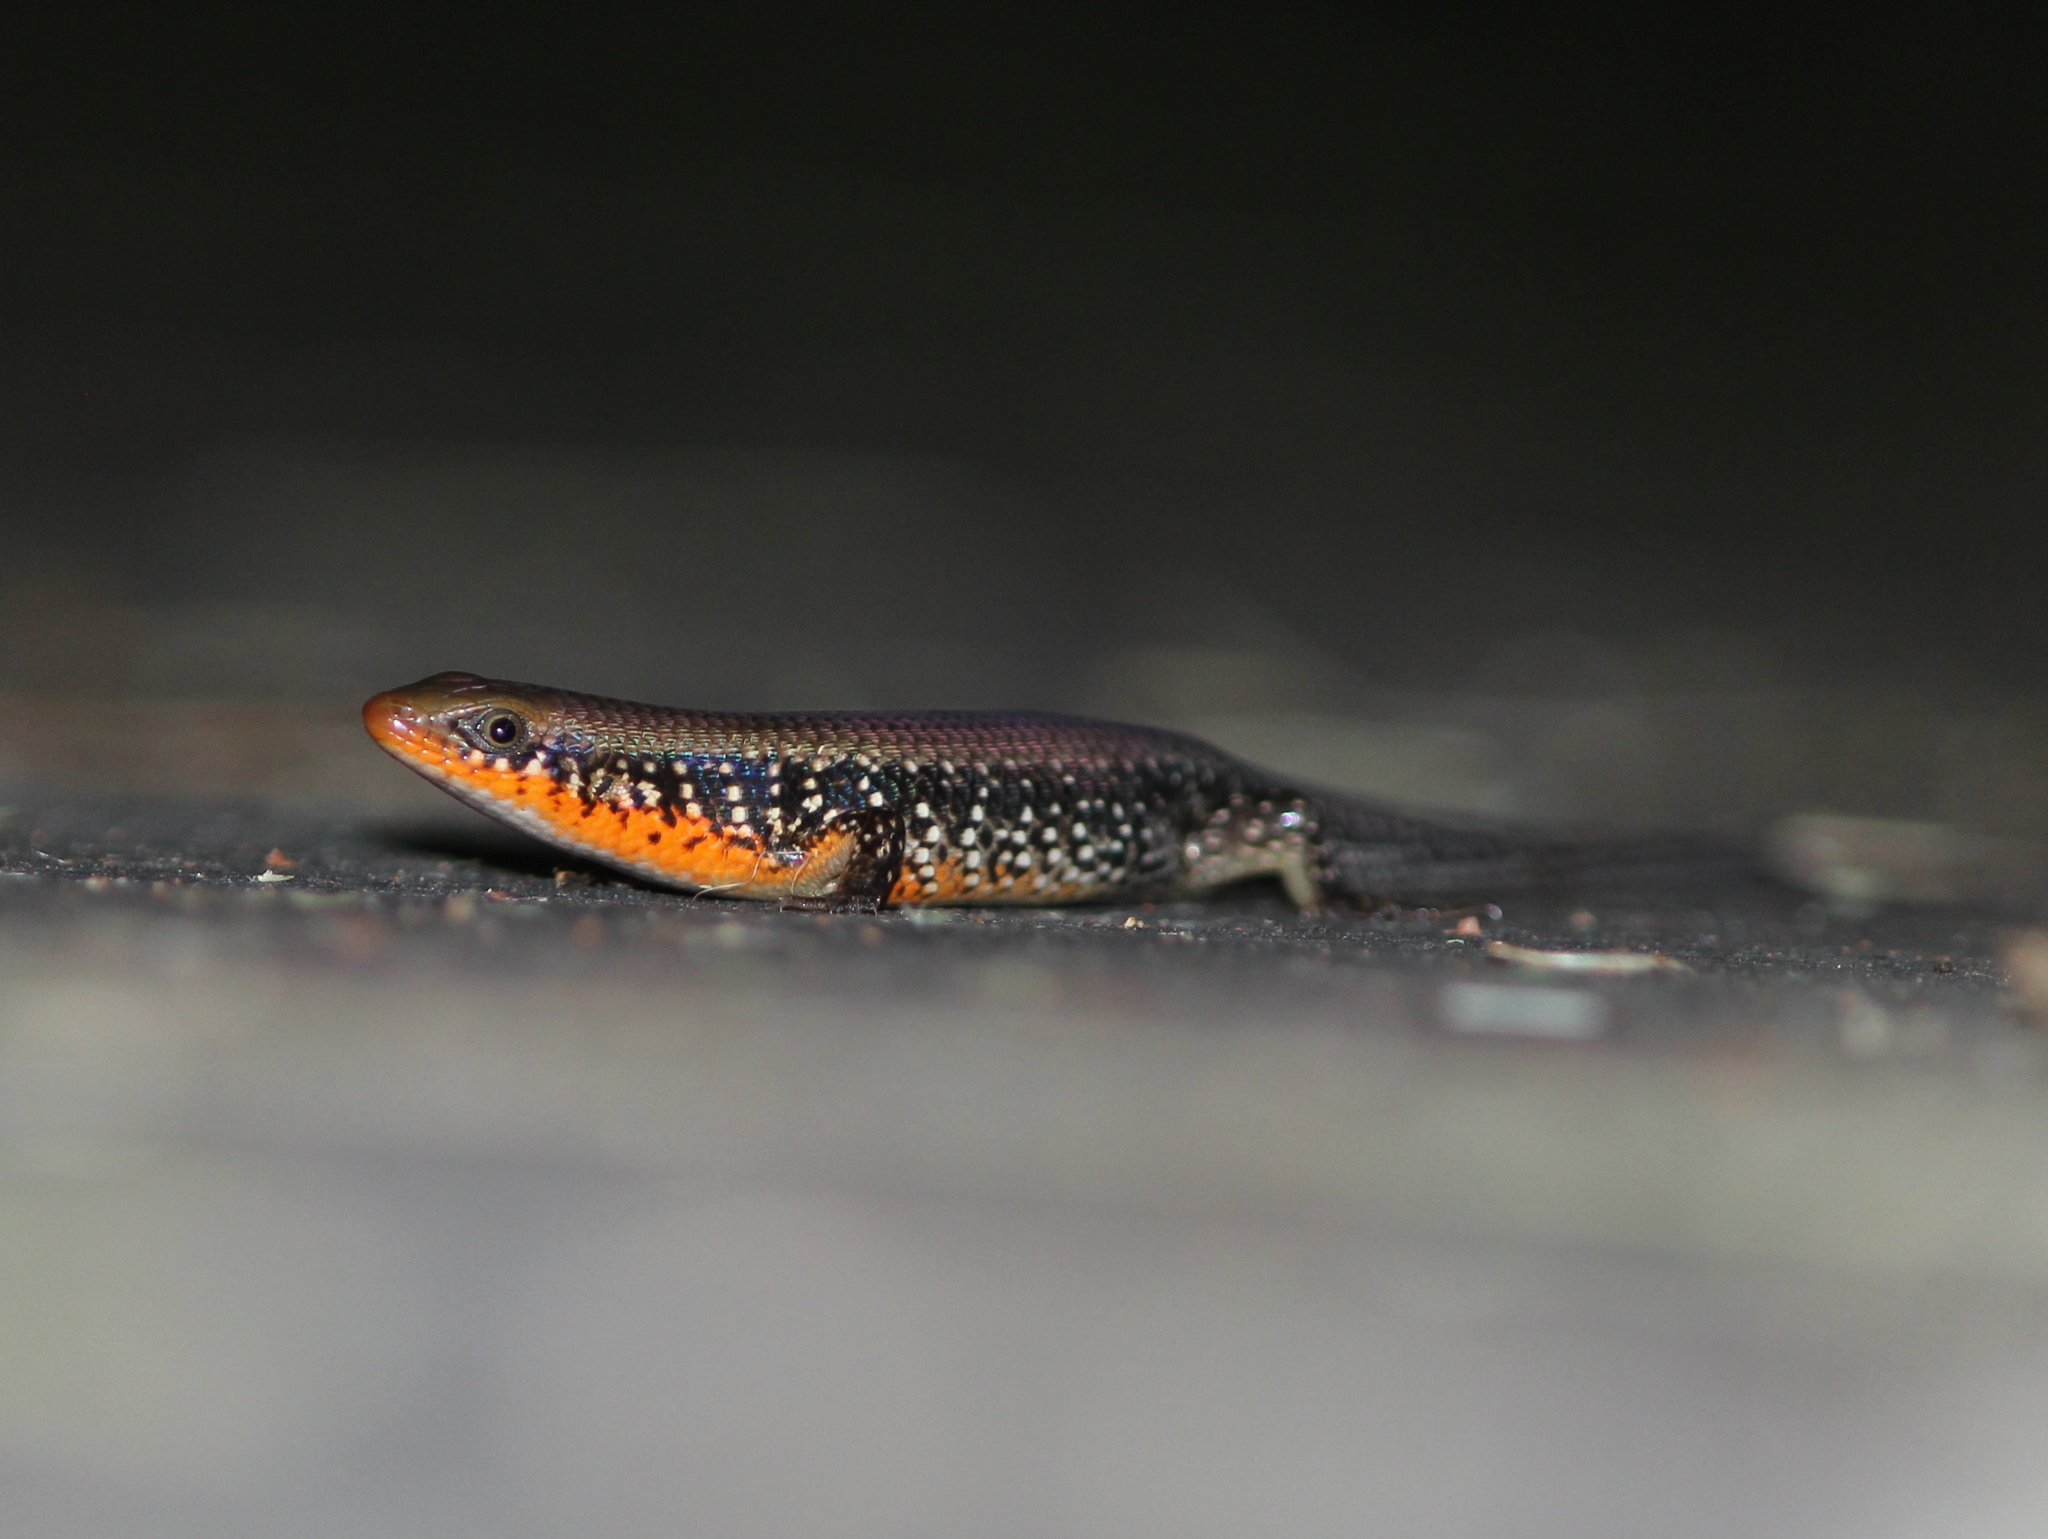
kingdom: Animalia
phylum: Chordata
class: Squamata
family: Scincidae
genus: Eutropis
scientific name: Eutropis macularia
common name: Bronze mabuya
